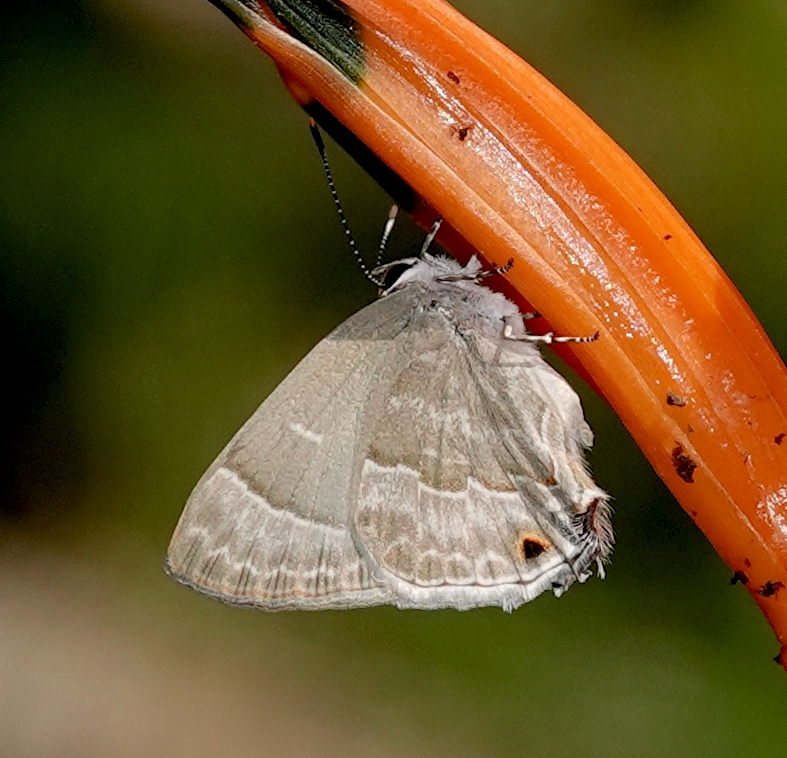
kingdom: Animalia
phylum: Arthropoda
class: Insecta
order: Lepidoptera
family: Lycaenidae
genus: Thecla
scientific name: Thecla yojoa
